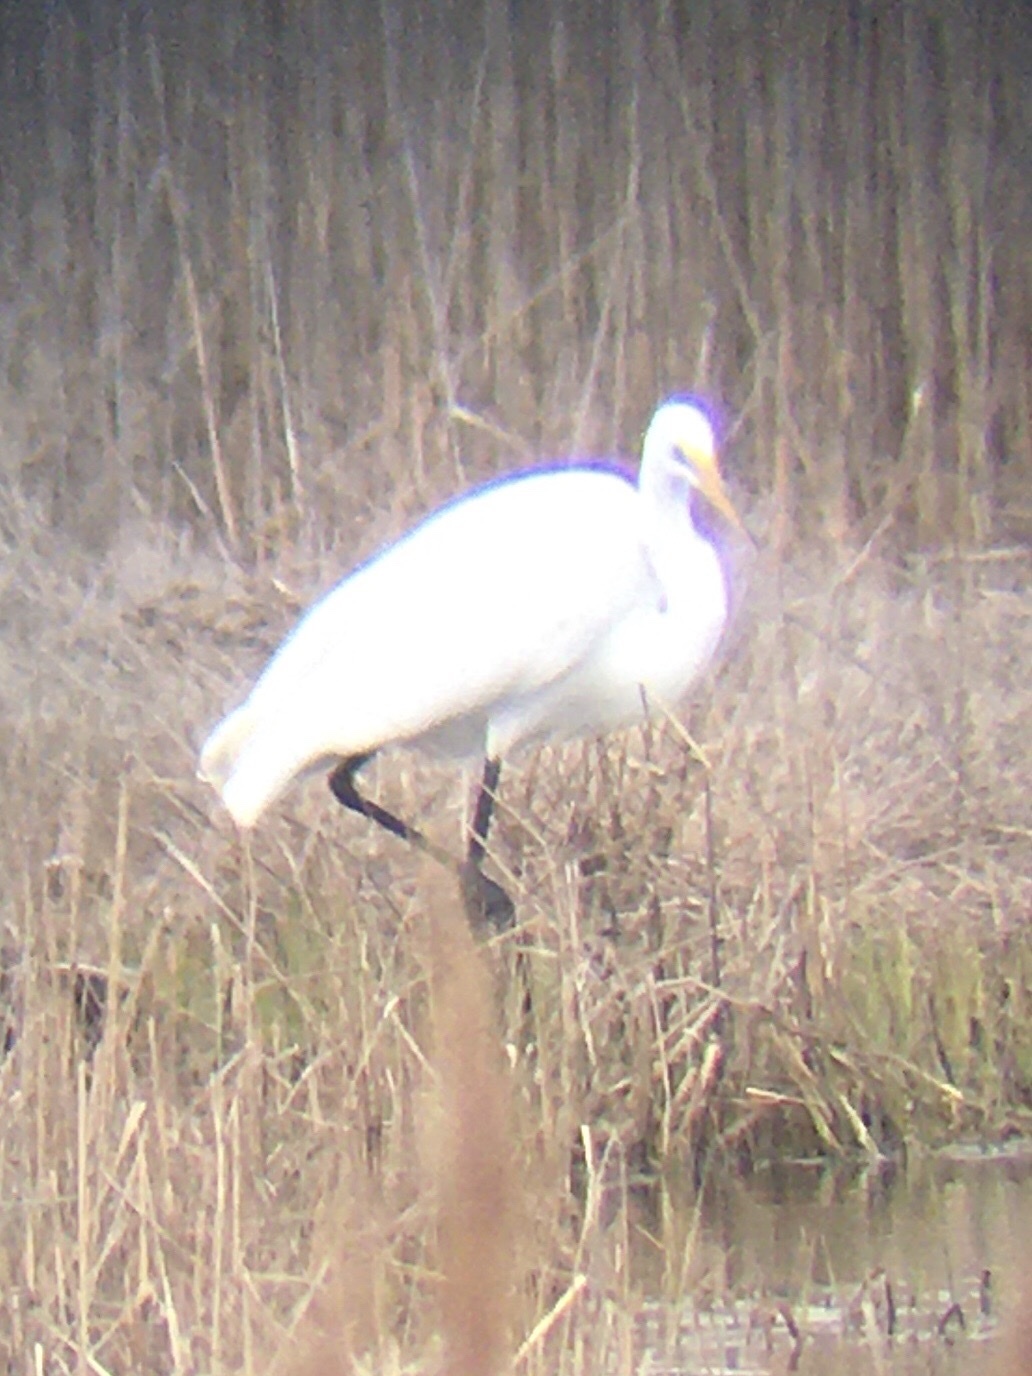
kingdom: Animalia
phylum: Chordata
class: Aves
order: Pelecaniformes
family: Ardeidae
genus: Ardea
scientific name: Ardea alba
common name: Great egret
